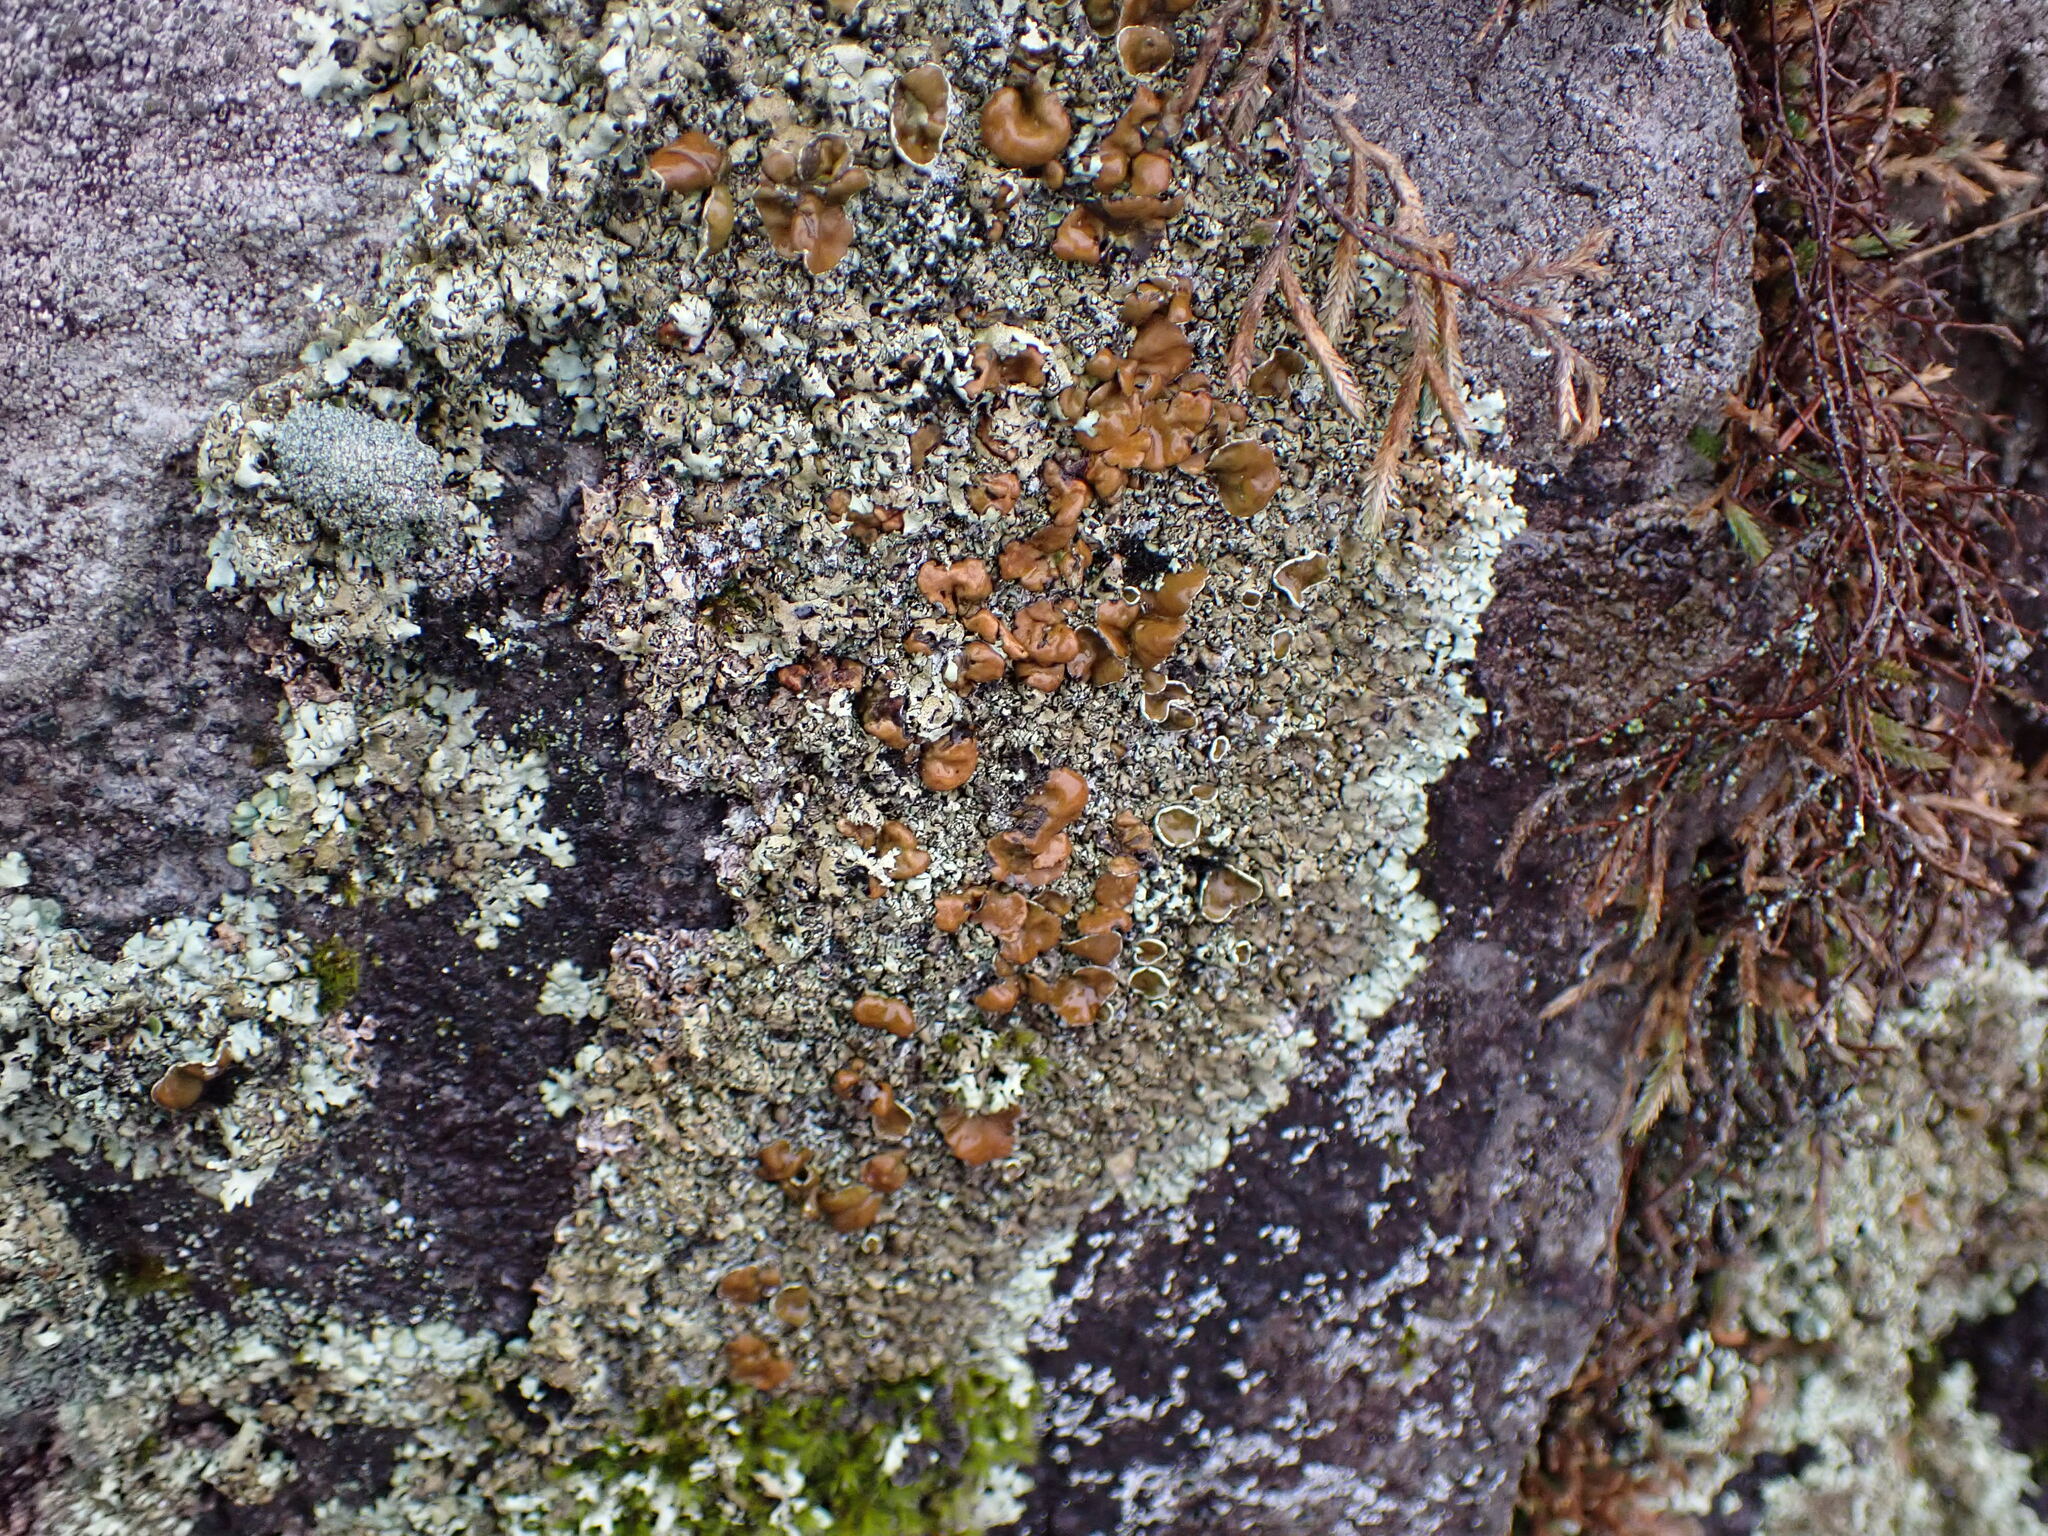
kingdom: Fungi
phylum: Ascomycota
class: Lecanoromycetes
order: Lecanorales
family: Parmeliaceae
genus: Xanthoparmelia
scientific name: Xanthoparmelia cumberlandia
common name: Cumberland rock shield
